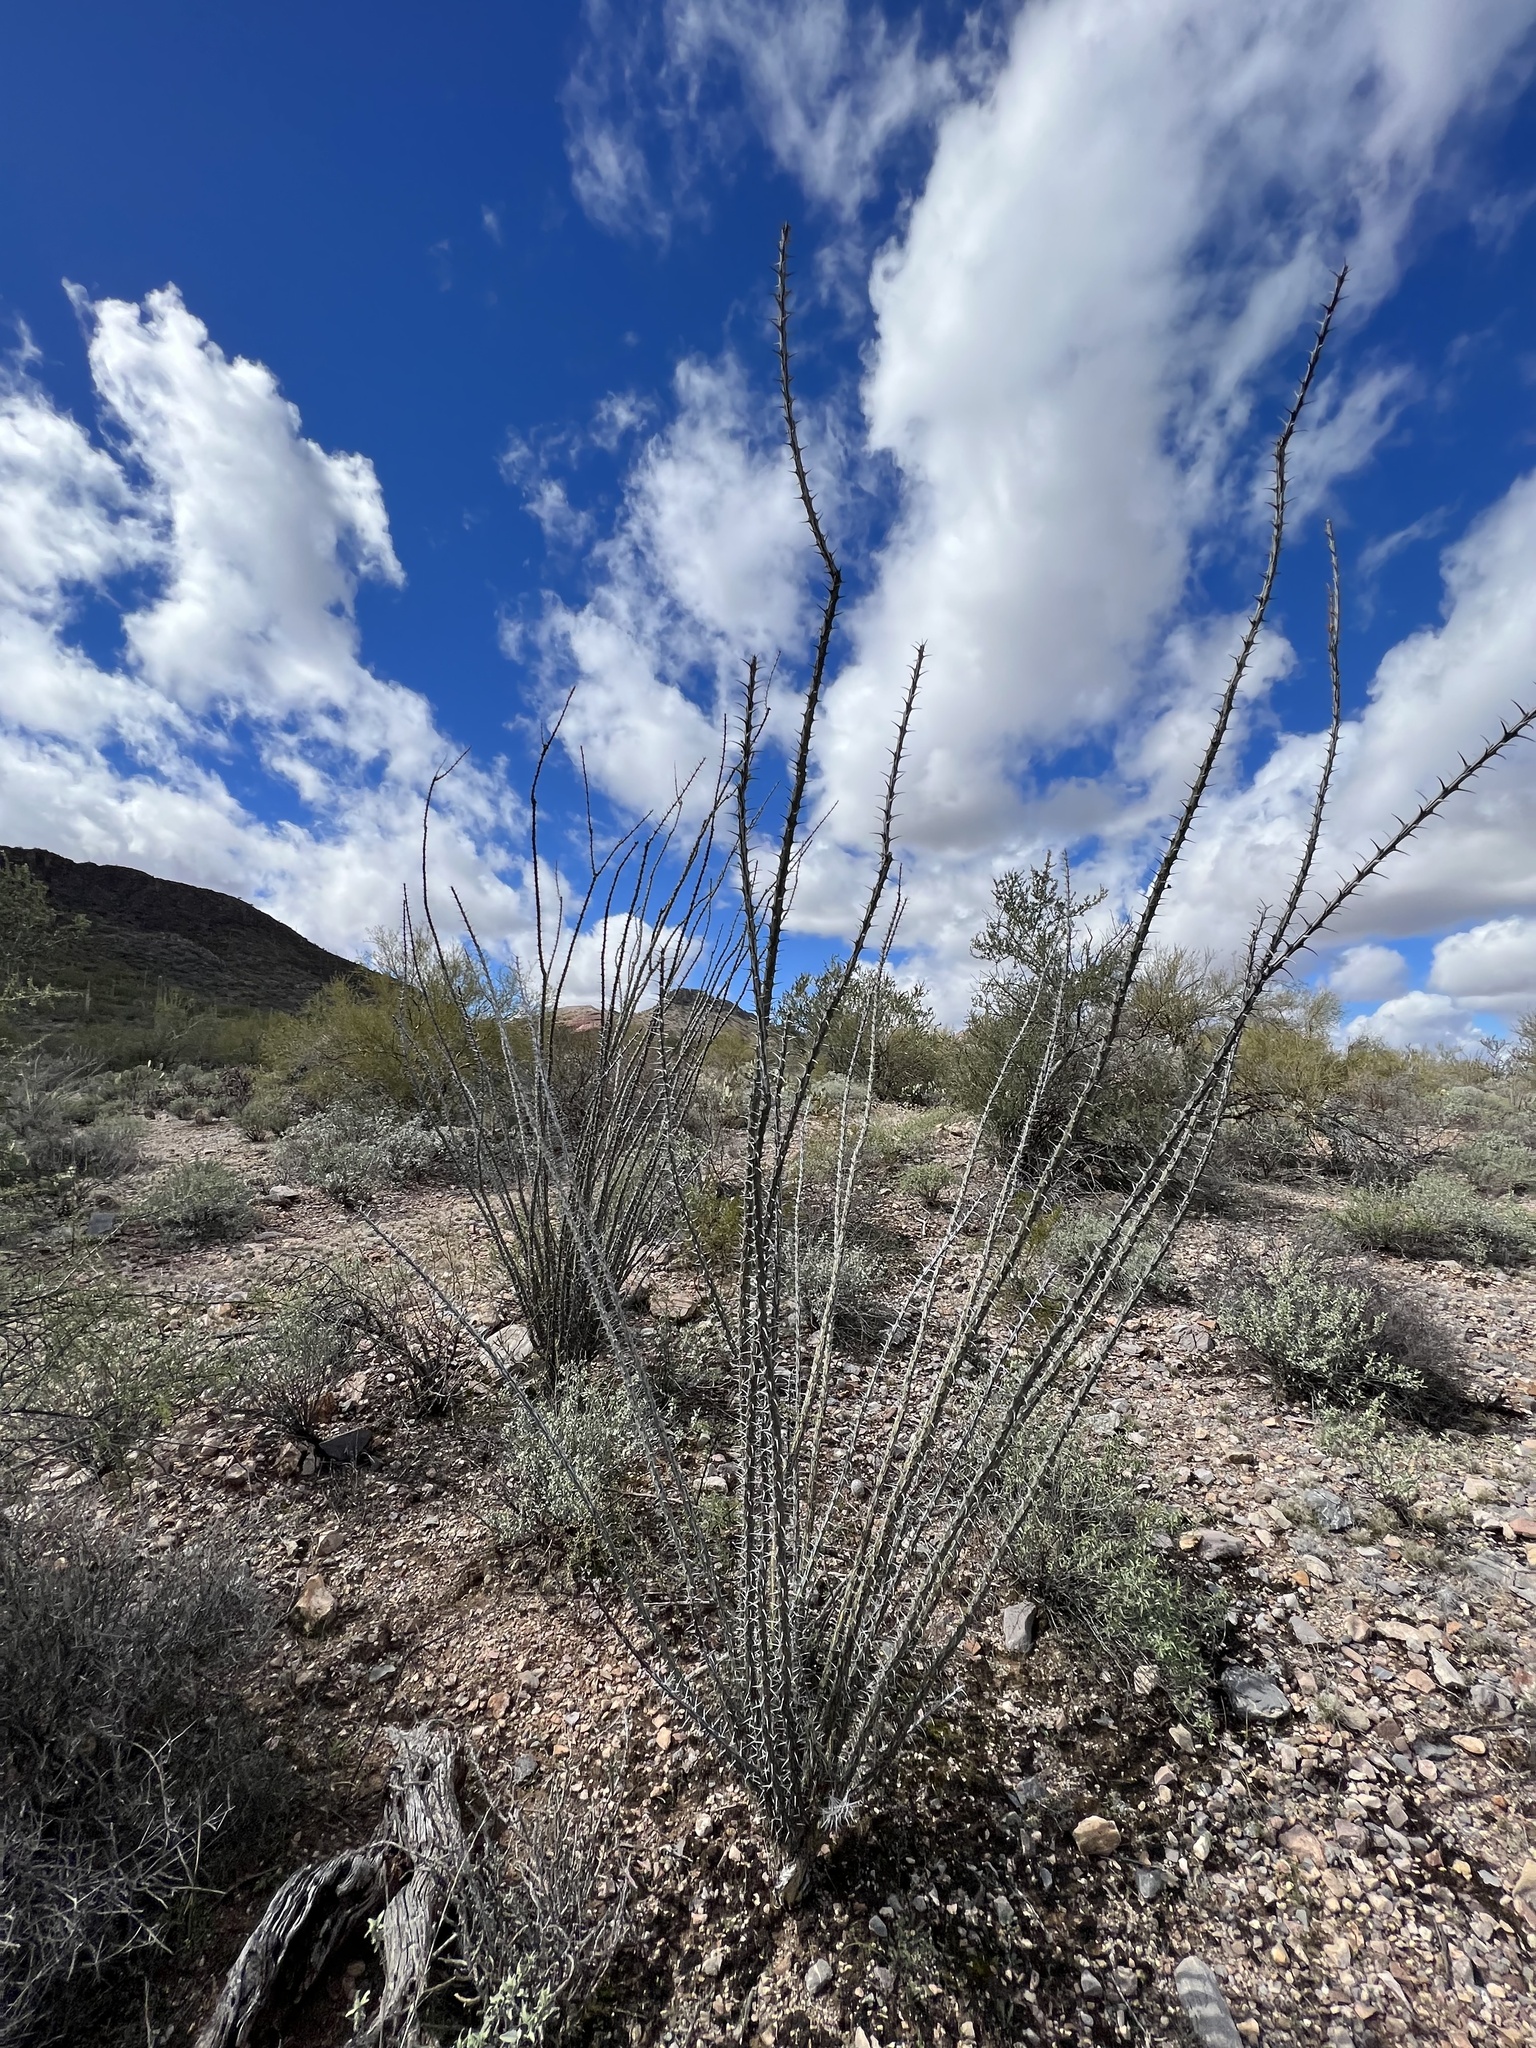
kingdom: Plantae
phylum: Tracheophyta
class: Magnoliopsida
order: Ericales
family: Fouquieriaceae
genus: Fouquieria
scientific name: Fouquieria splendens
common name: Vine-cactus
